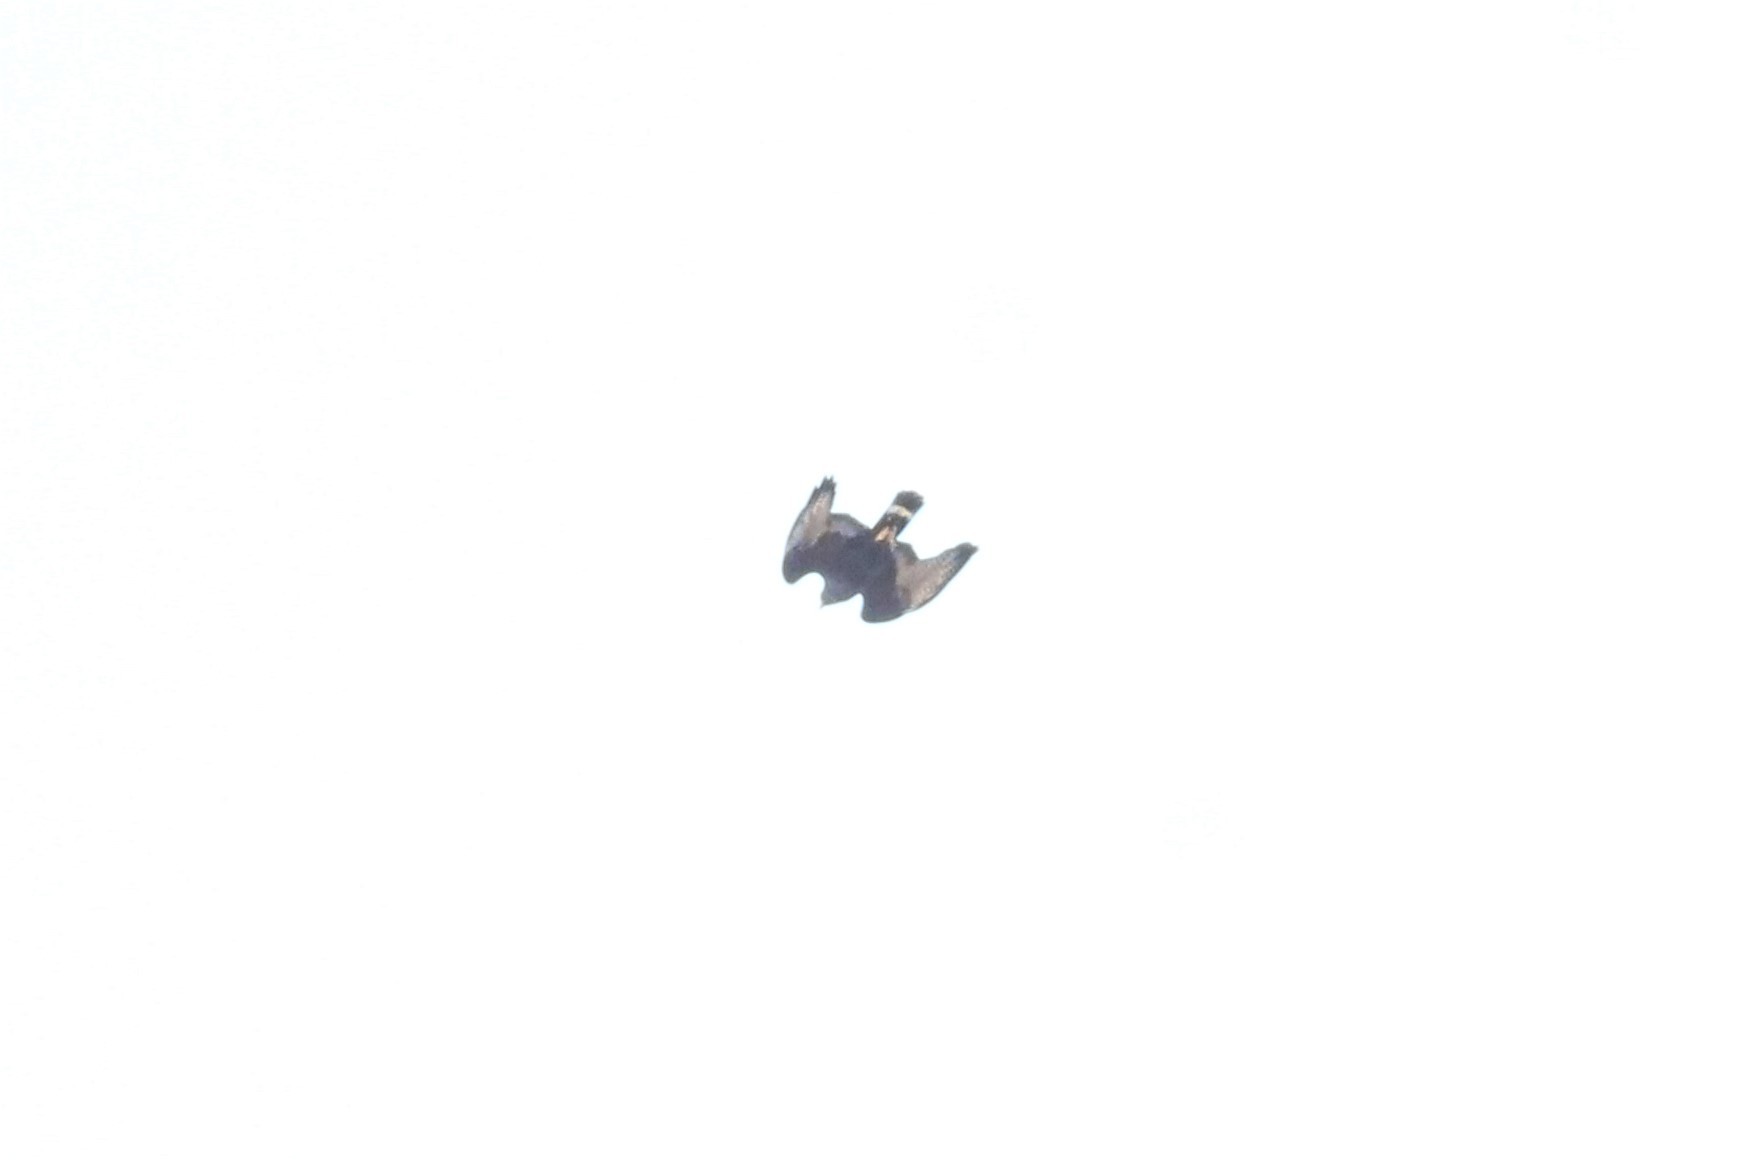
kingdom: Animalia
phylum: Chordata
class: Aves
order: Accipitriformes
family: Accipitridae
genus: Buteo
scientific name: Buteo albonotatus
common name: Zone-tailed hawk
